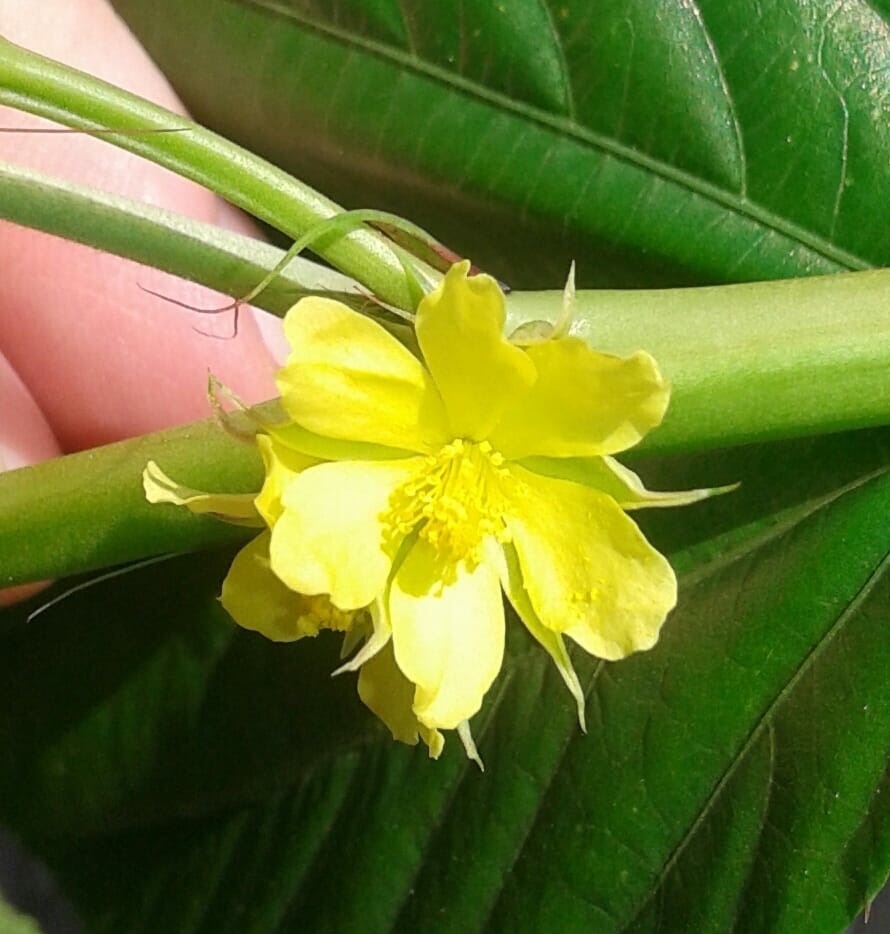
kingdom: Plantae
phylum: Tracheophyta
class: Magnoliopsida
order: Malvales
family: Malvaceae
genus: Corchorus
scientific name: Corchorus olitorius
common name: Tossa jute
